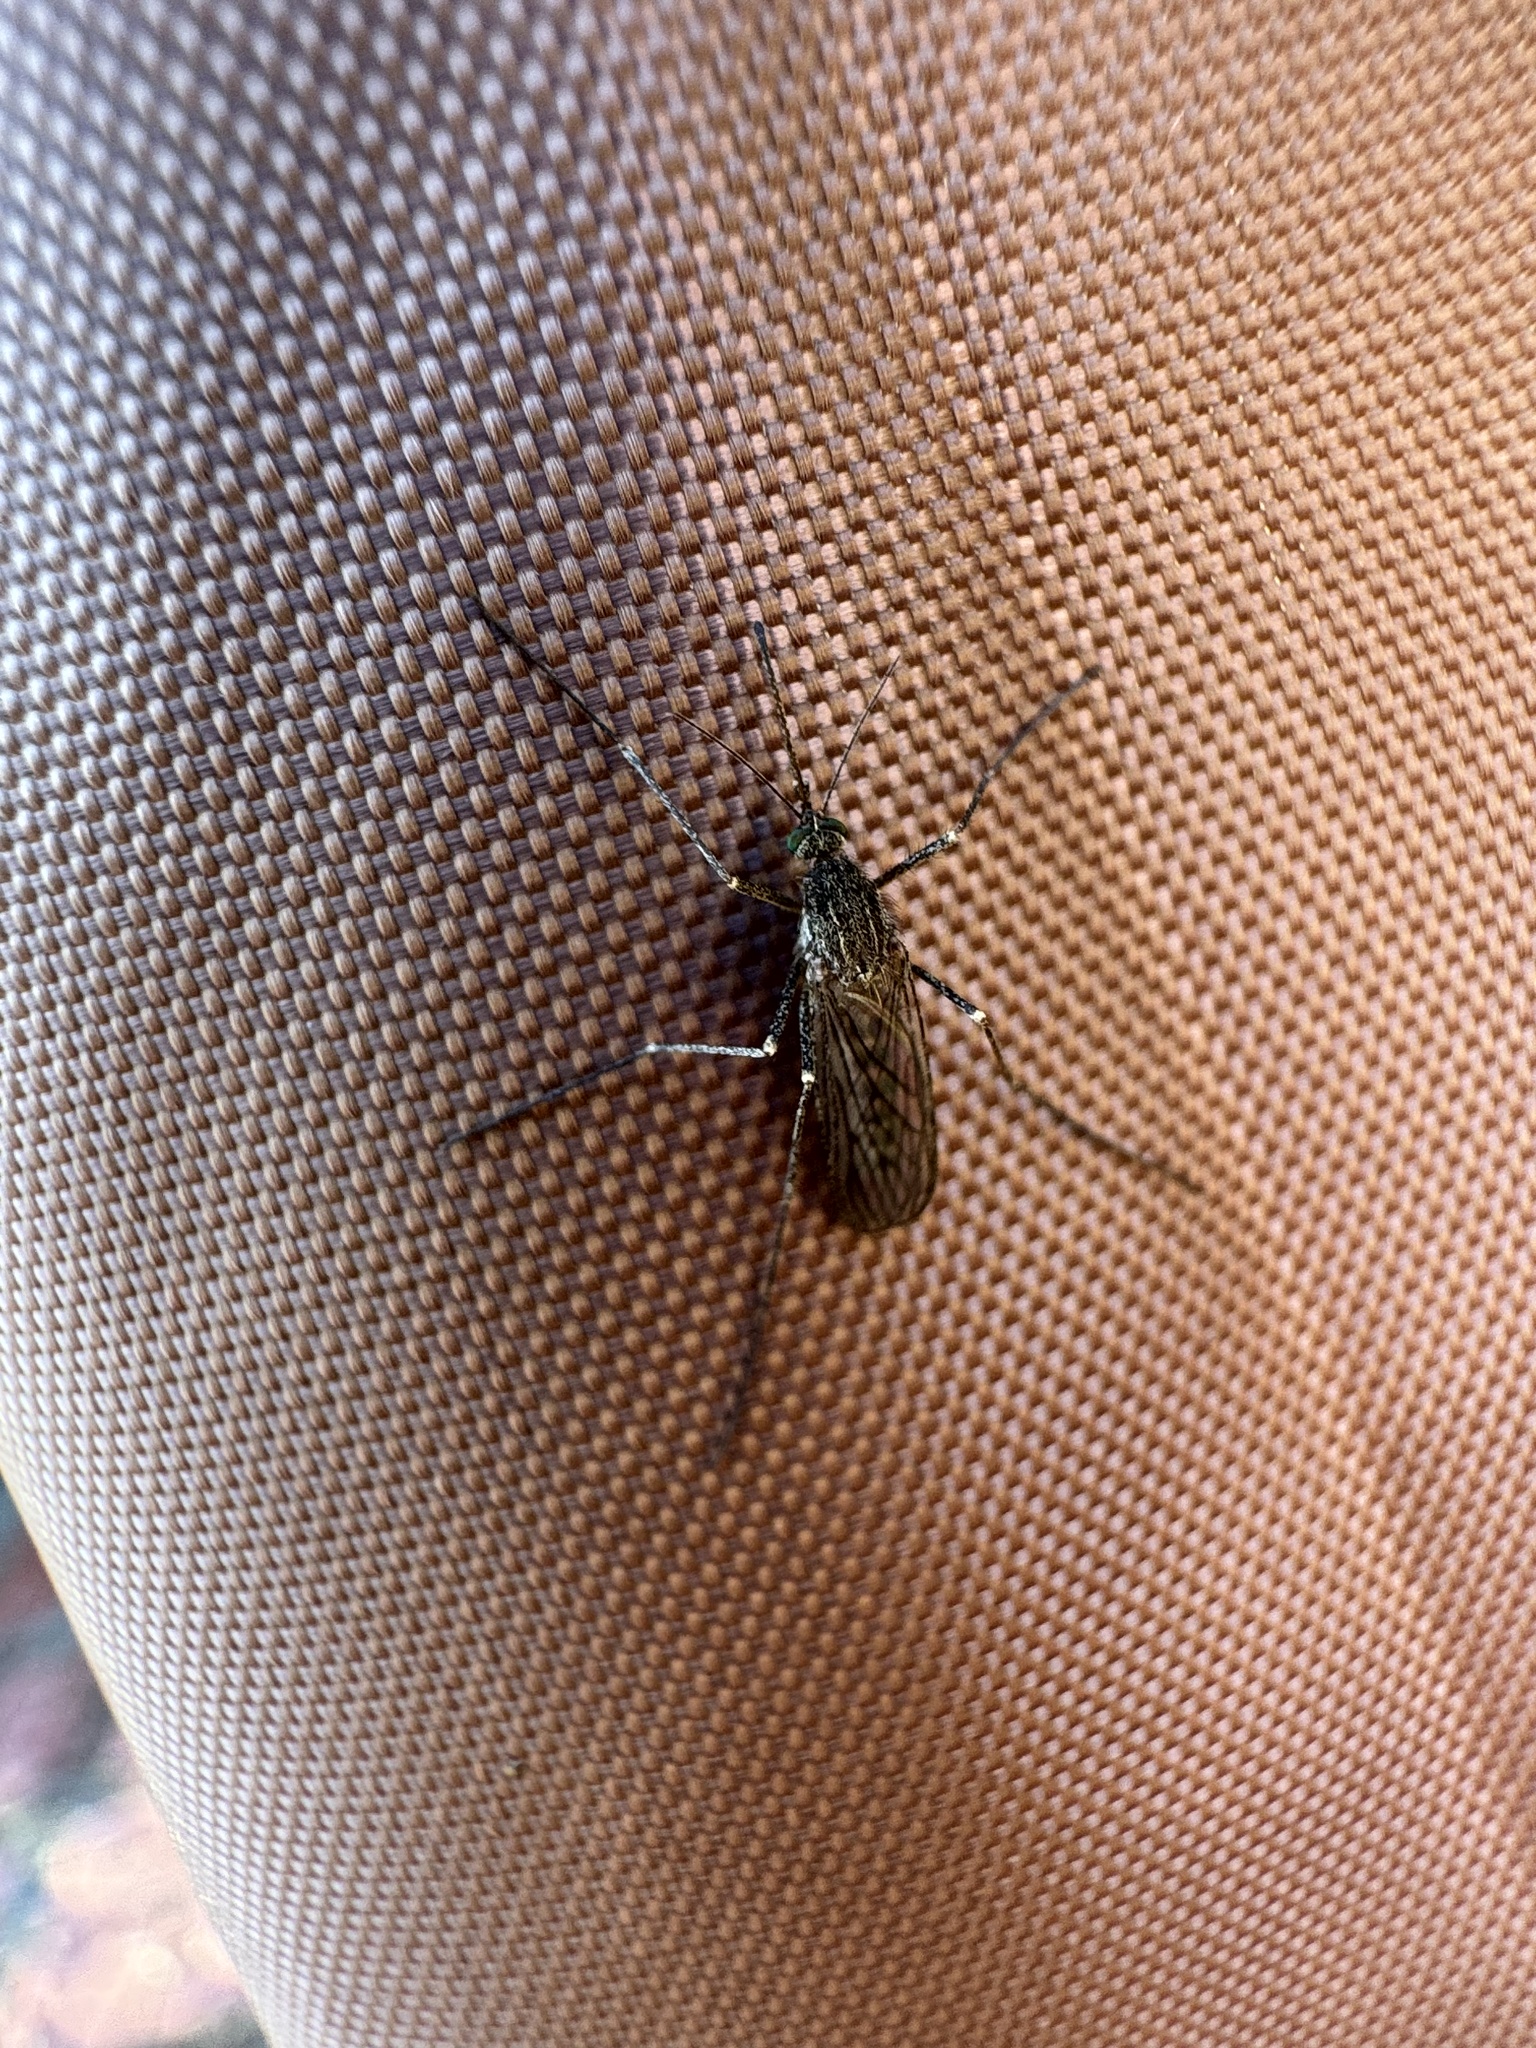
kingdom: Animalia
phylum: Arthropoda
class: Insecta
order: Diptera
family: Culicidae
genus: Culiseta
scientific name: Culiseta inornata
